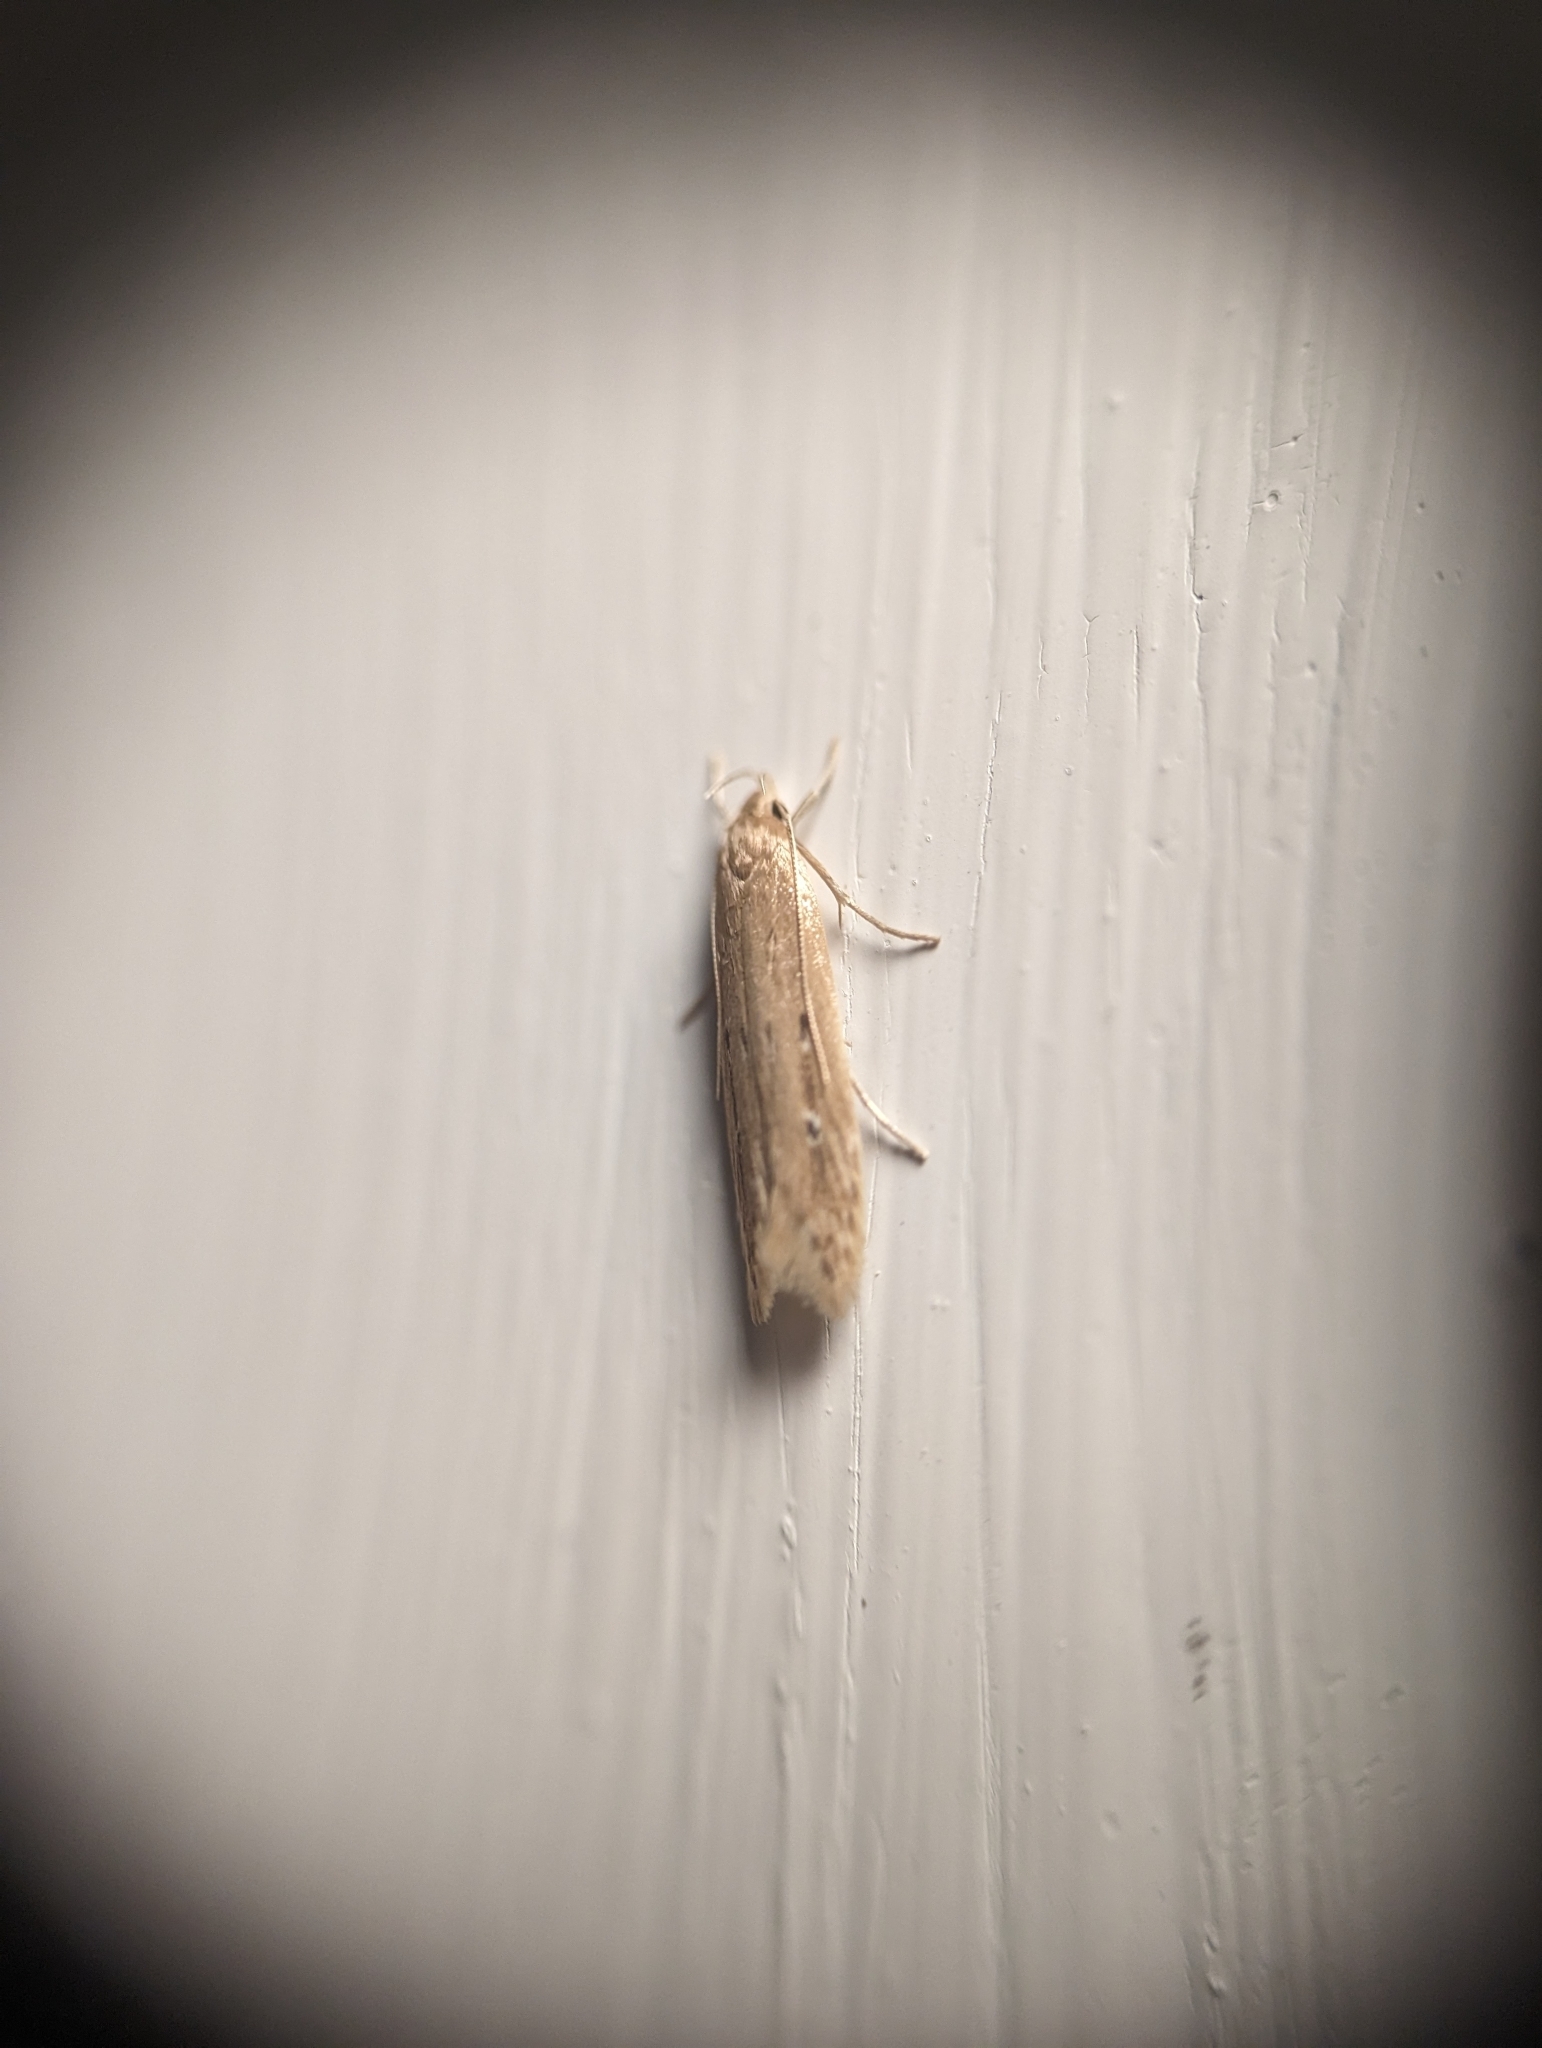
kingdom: Animalia
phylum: Arthropoda
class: Insecta
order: Lepidoptera
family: Cosmopterigidae
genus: Limnaecia
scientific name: Limnaecia phragmitella
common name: Bulrush cosmet
